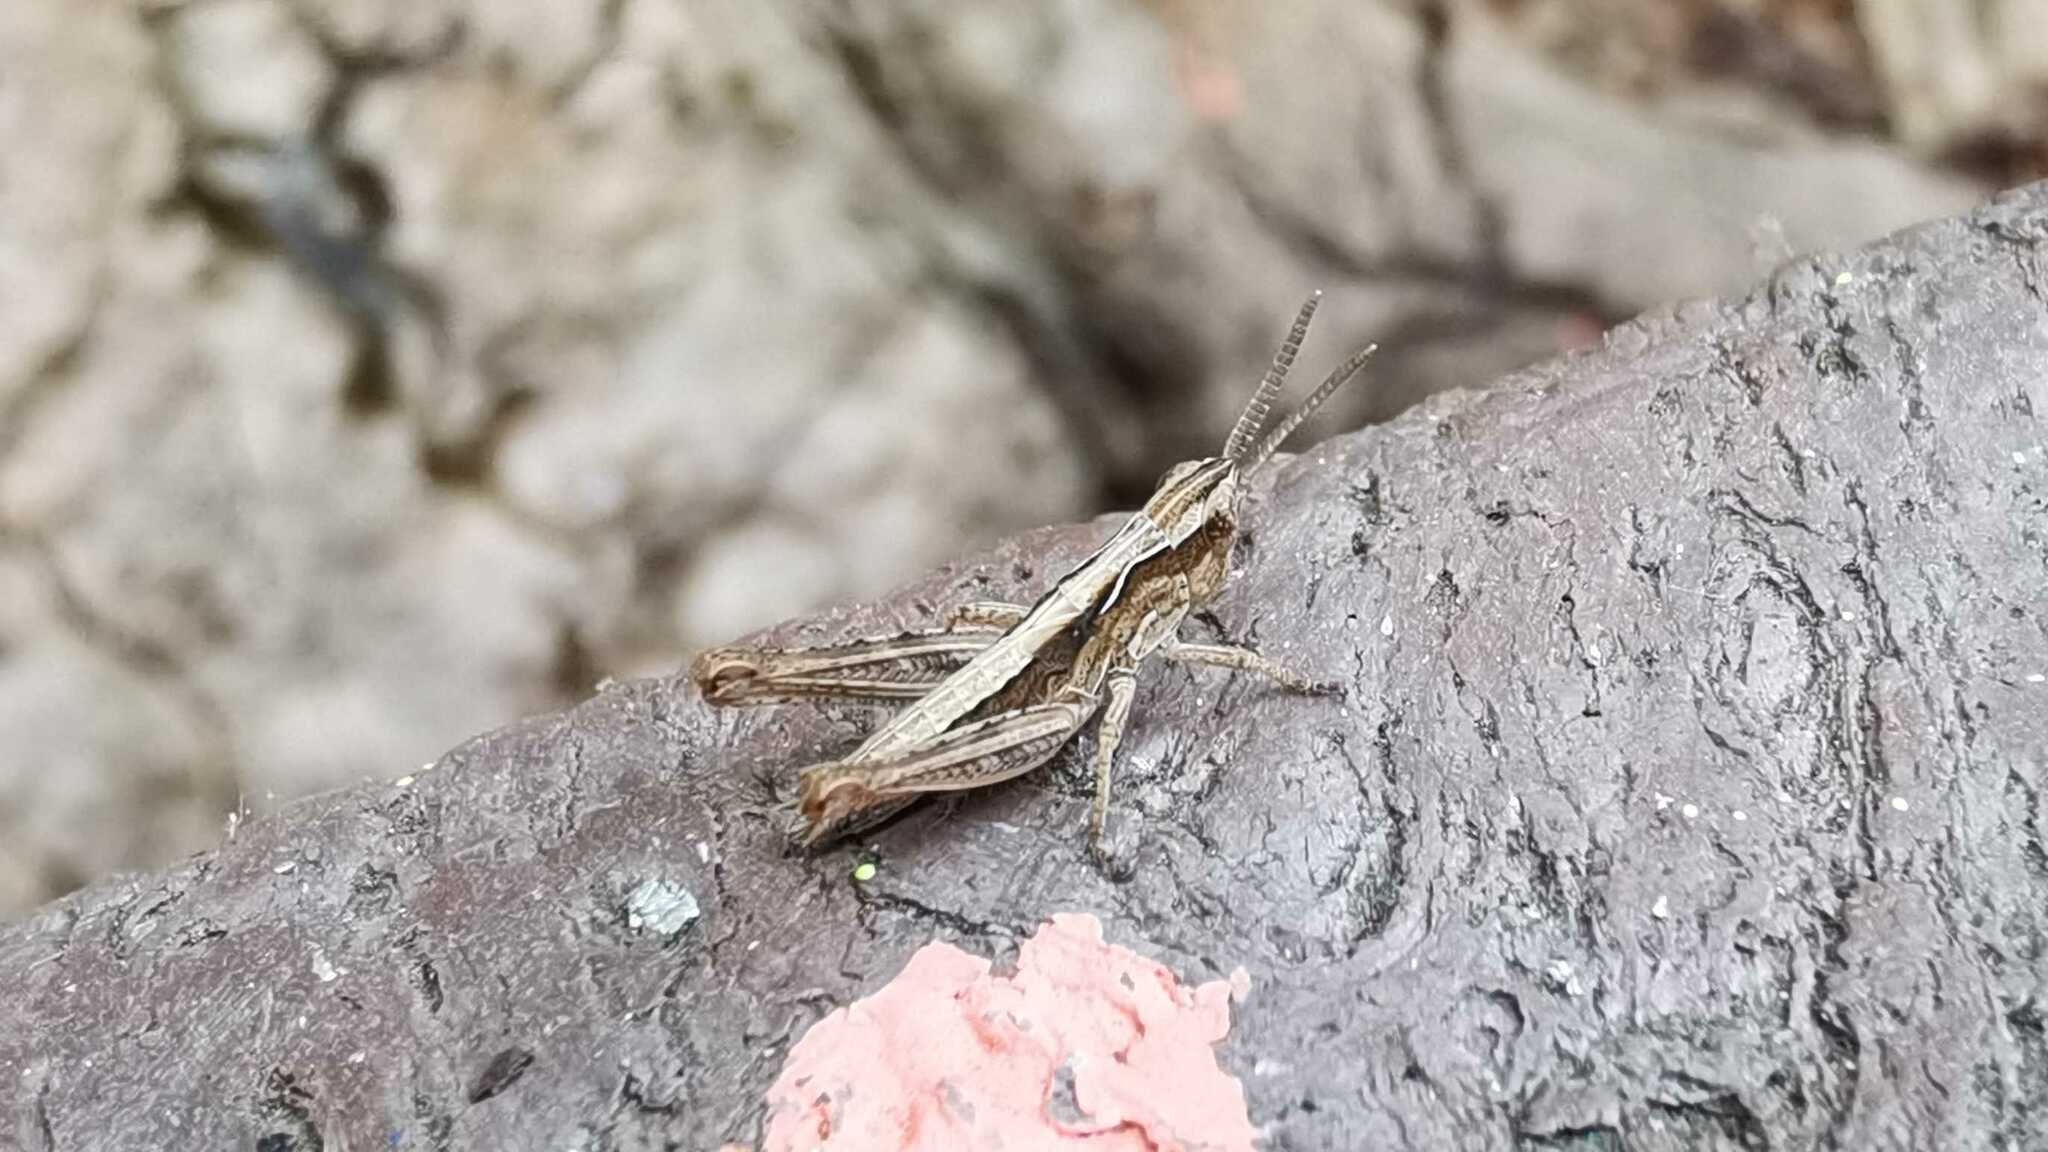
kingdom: Animalia
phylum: Arthropoda
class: Insecta
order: Orthoptera
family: Acrididae
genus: Glyptobothrus
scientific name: Glyptobothrus
